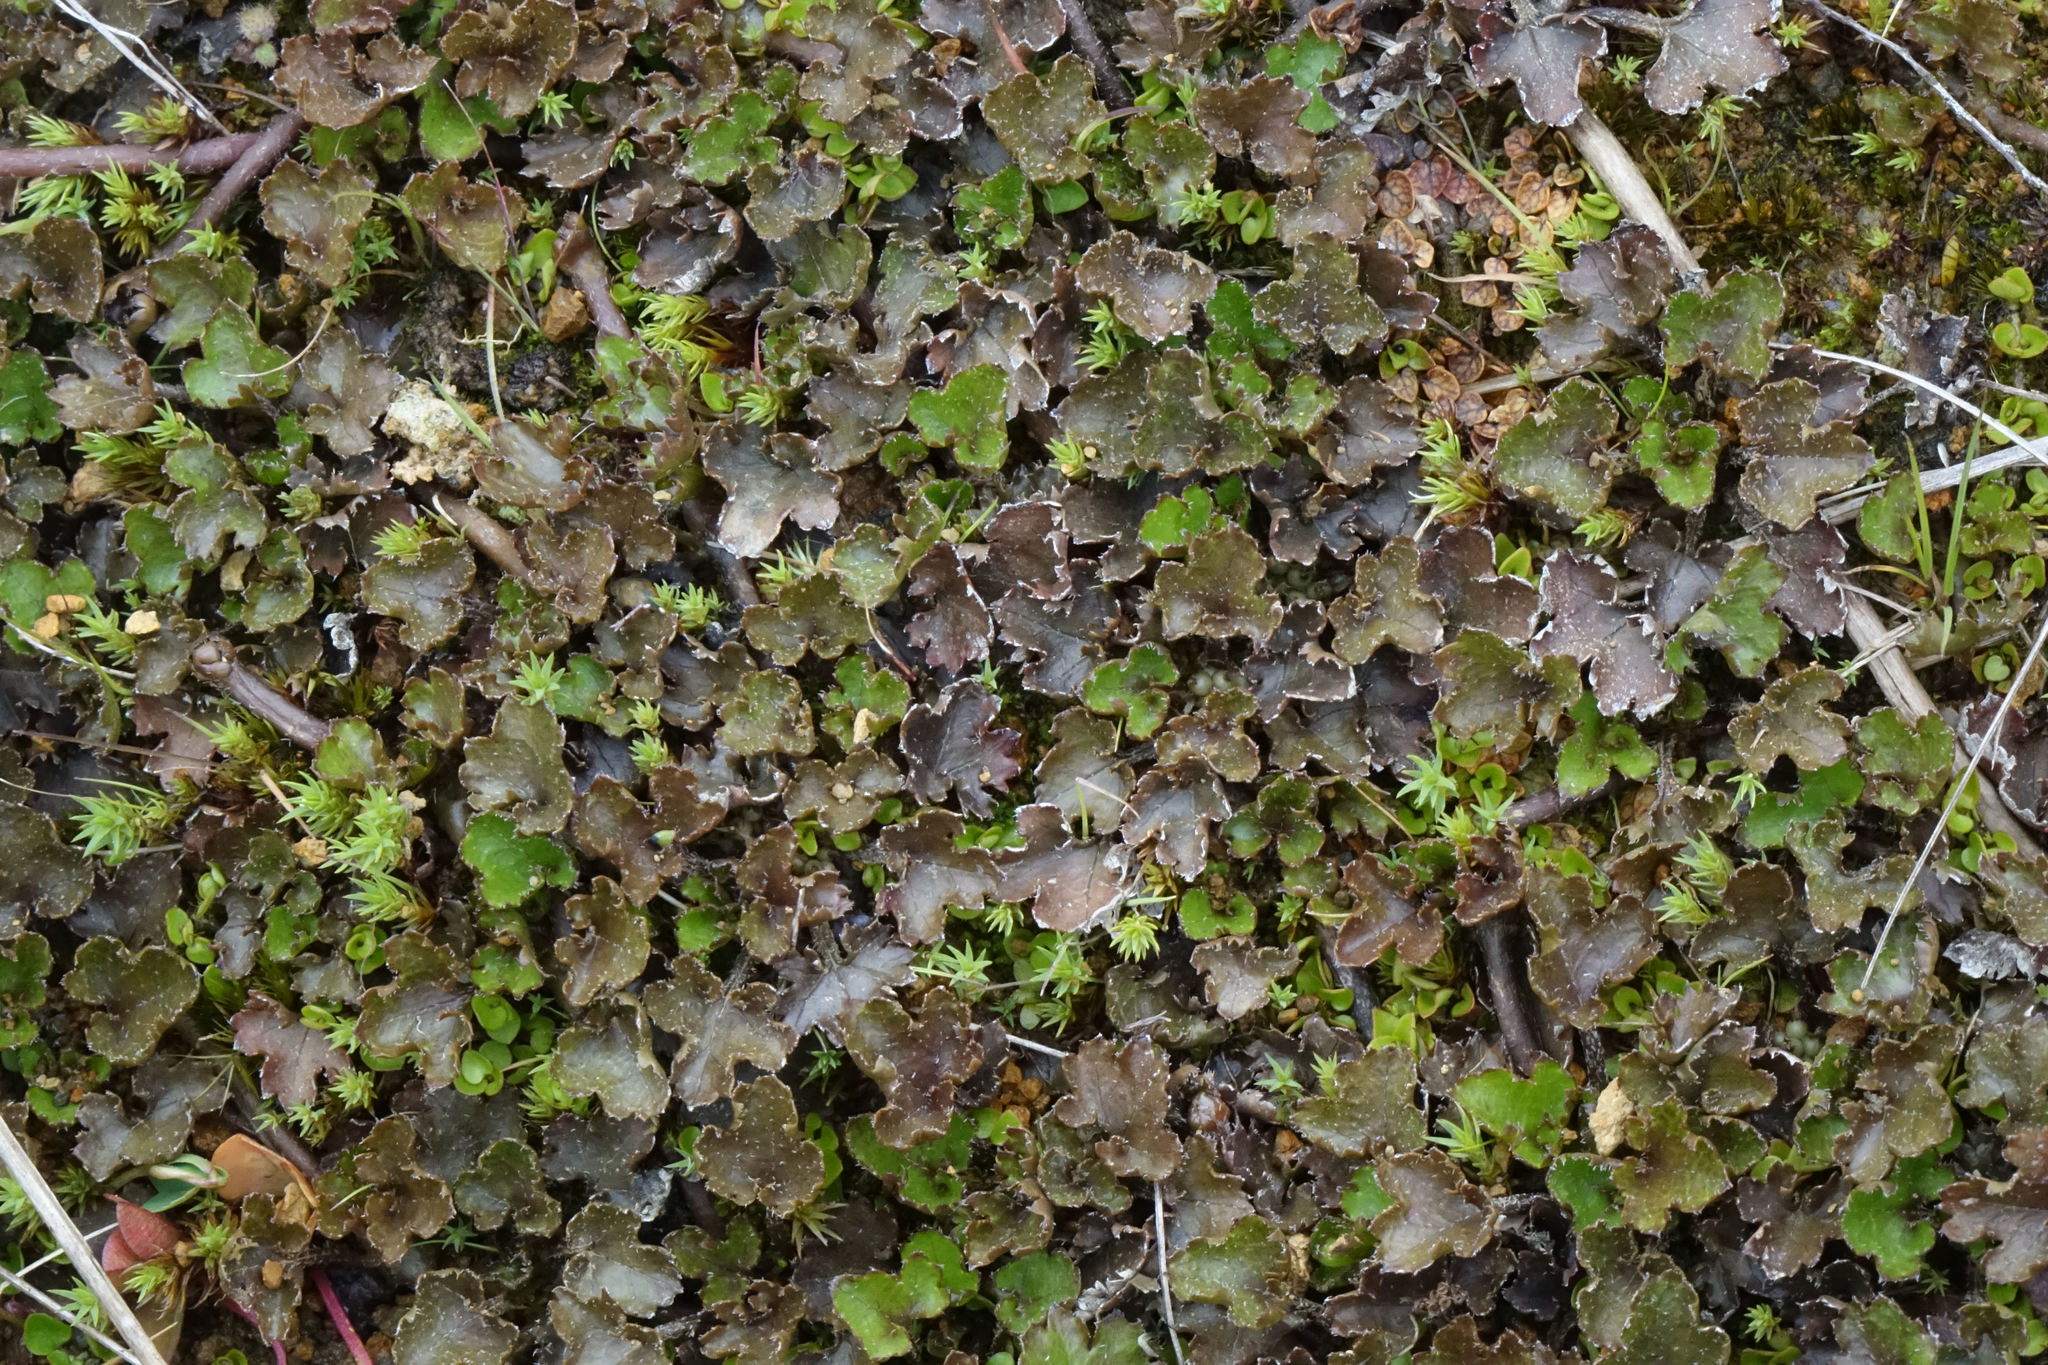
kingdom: Plantae
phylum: Tracheophyta
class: Magnoliopsida
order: Gunnerales
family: Gunneraceae
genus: Gunnera
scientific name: Gunnera monoica
